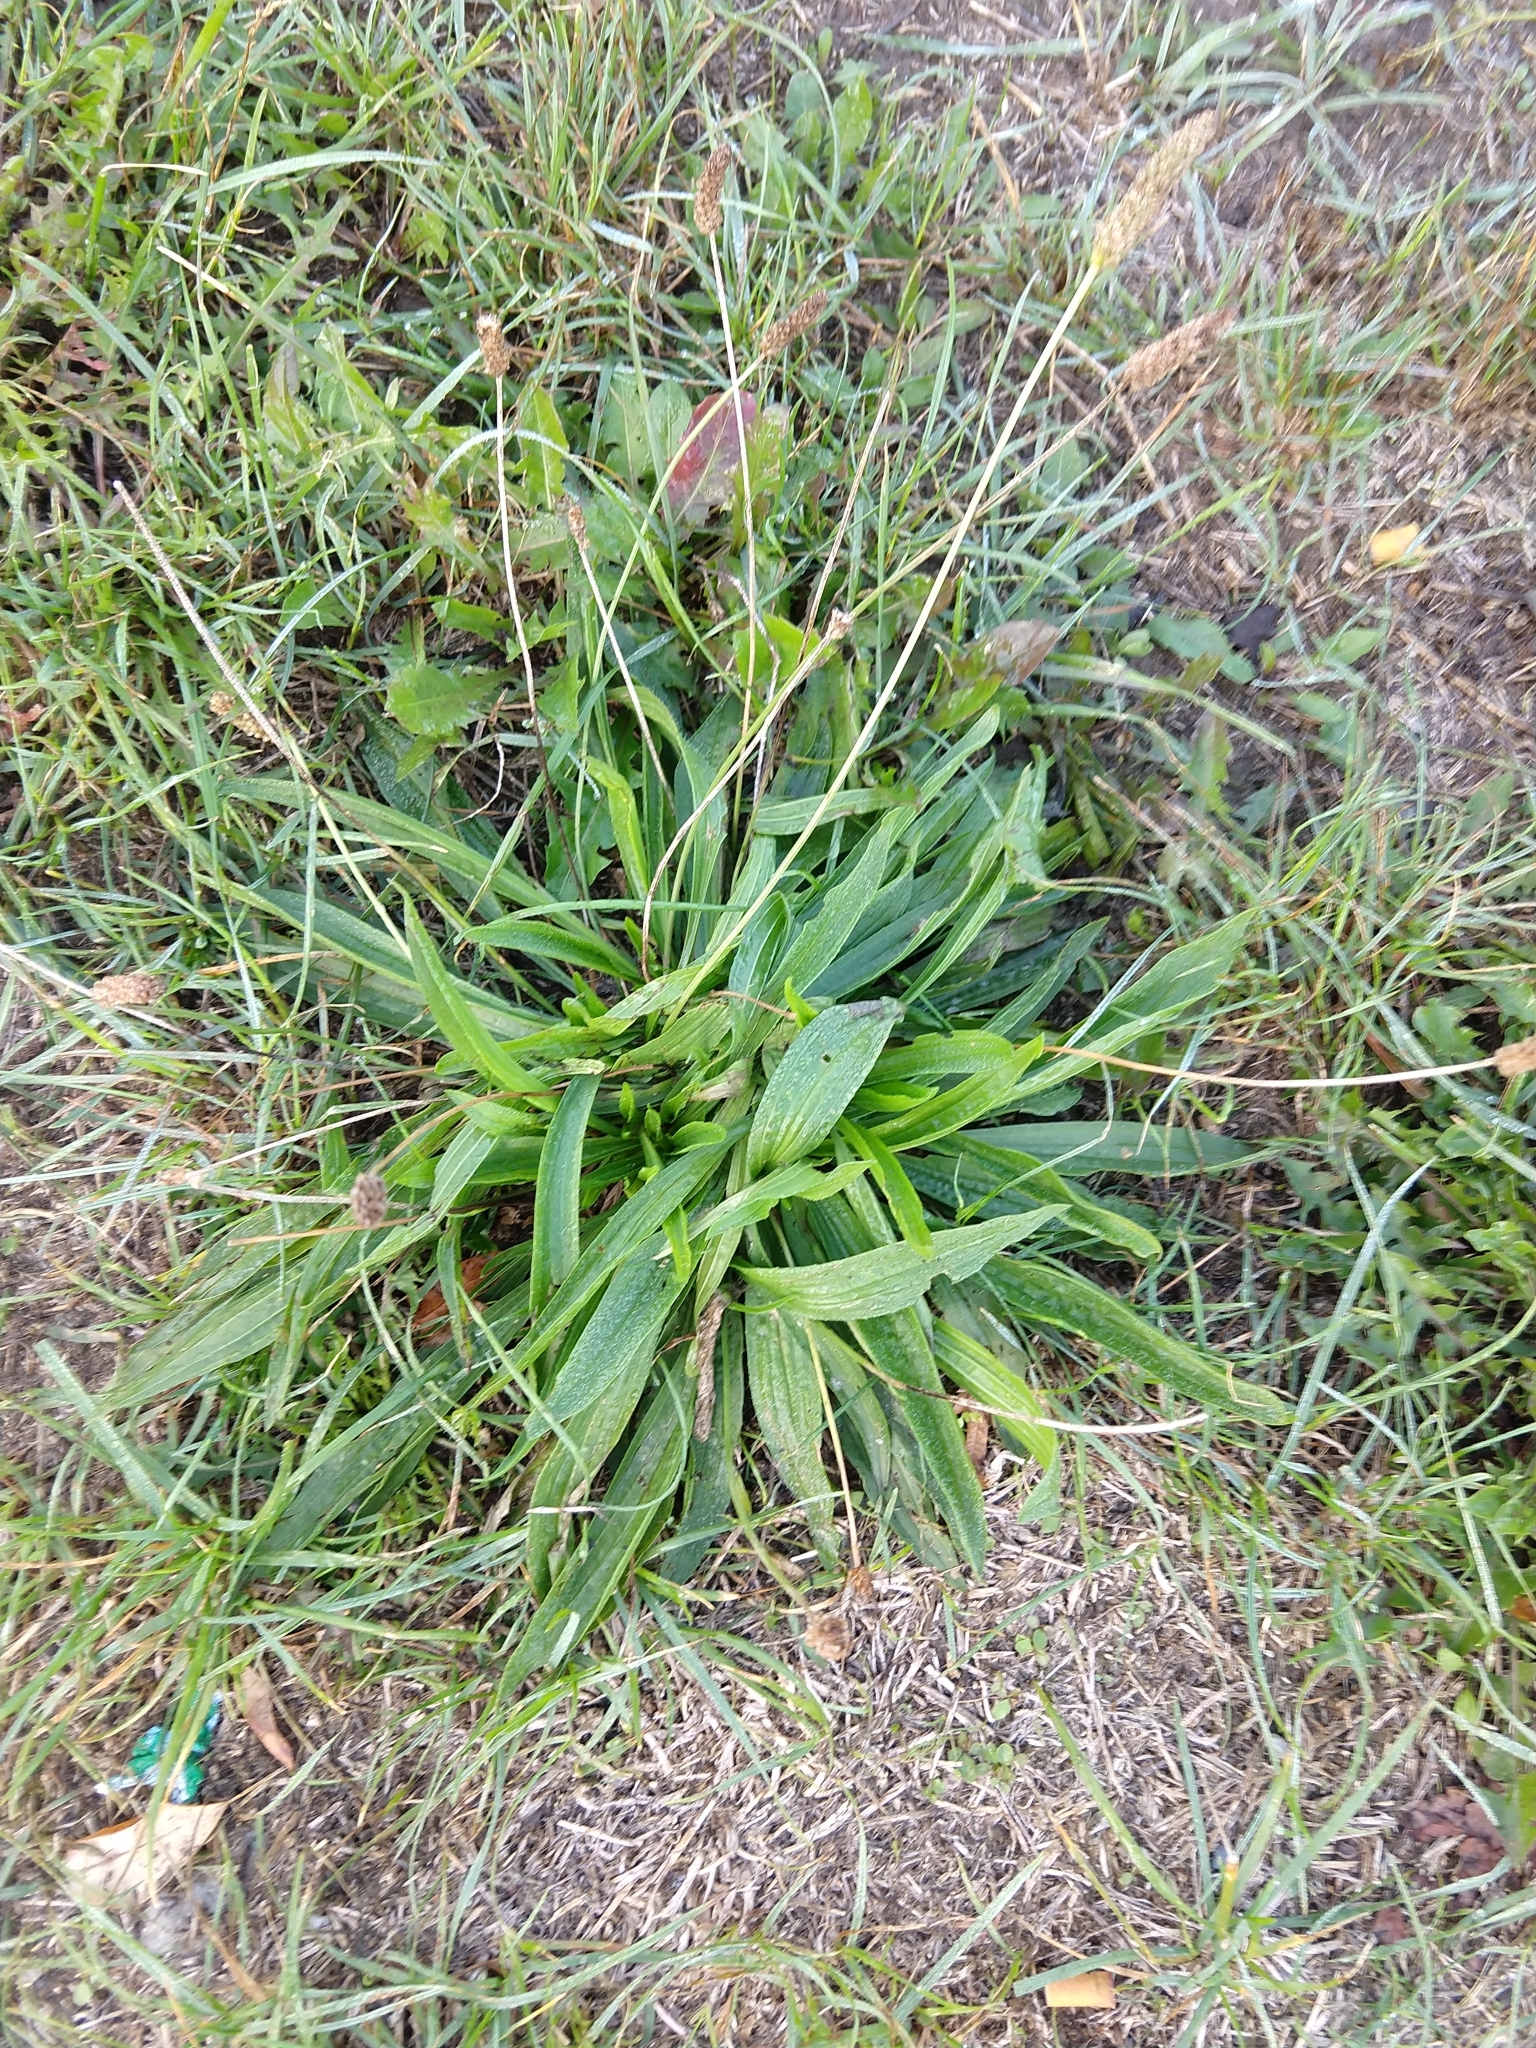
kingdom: Plantae
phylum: Tracheophyta
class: Magnoliopsida
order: Lamiales
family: Plantaginaceae
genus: Plantago
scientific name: Plantago lanceolata
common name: Ribwort plantain
